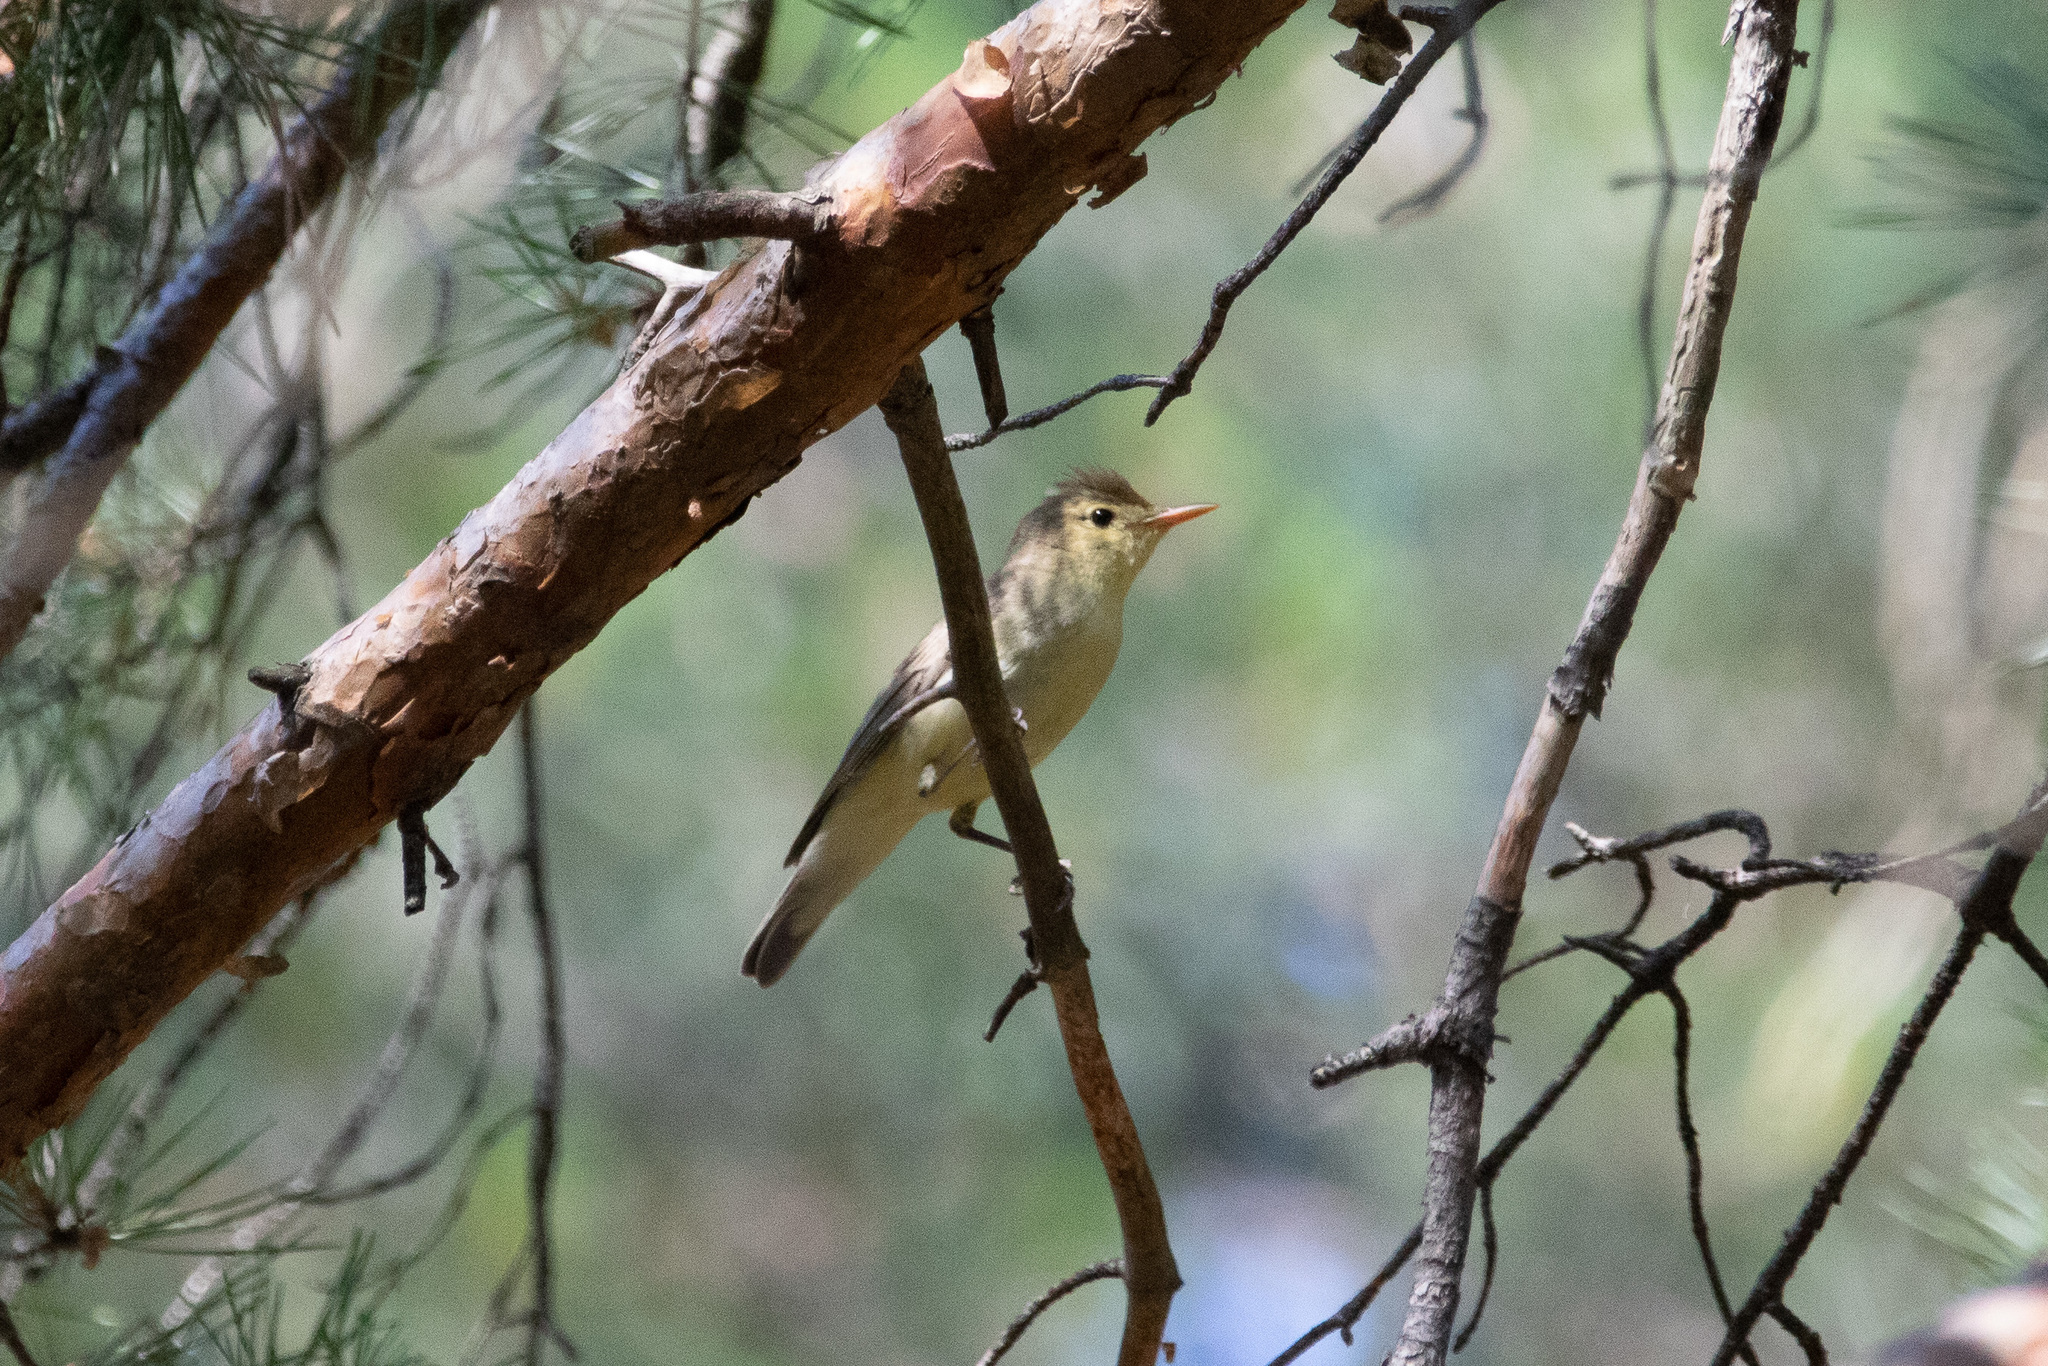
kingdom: Animalia
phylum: Chordata
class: Aves
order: Passeriformes
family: Acrocephalidae
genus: Hippolais
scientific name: Hippolais icterina
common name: Icterine warbler
